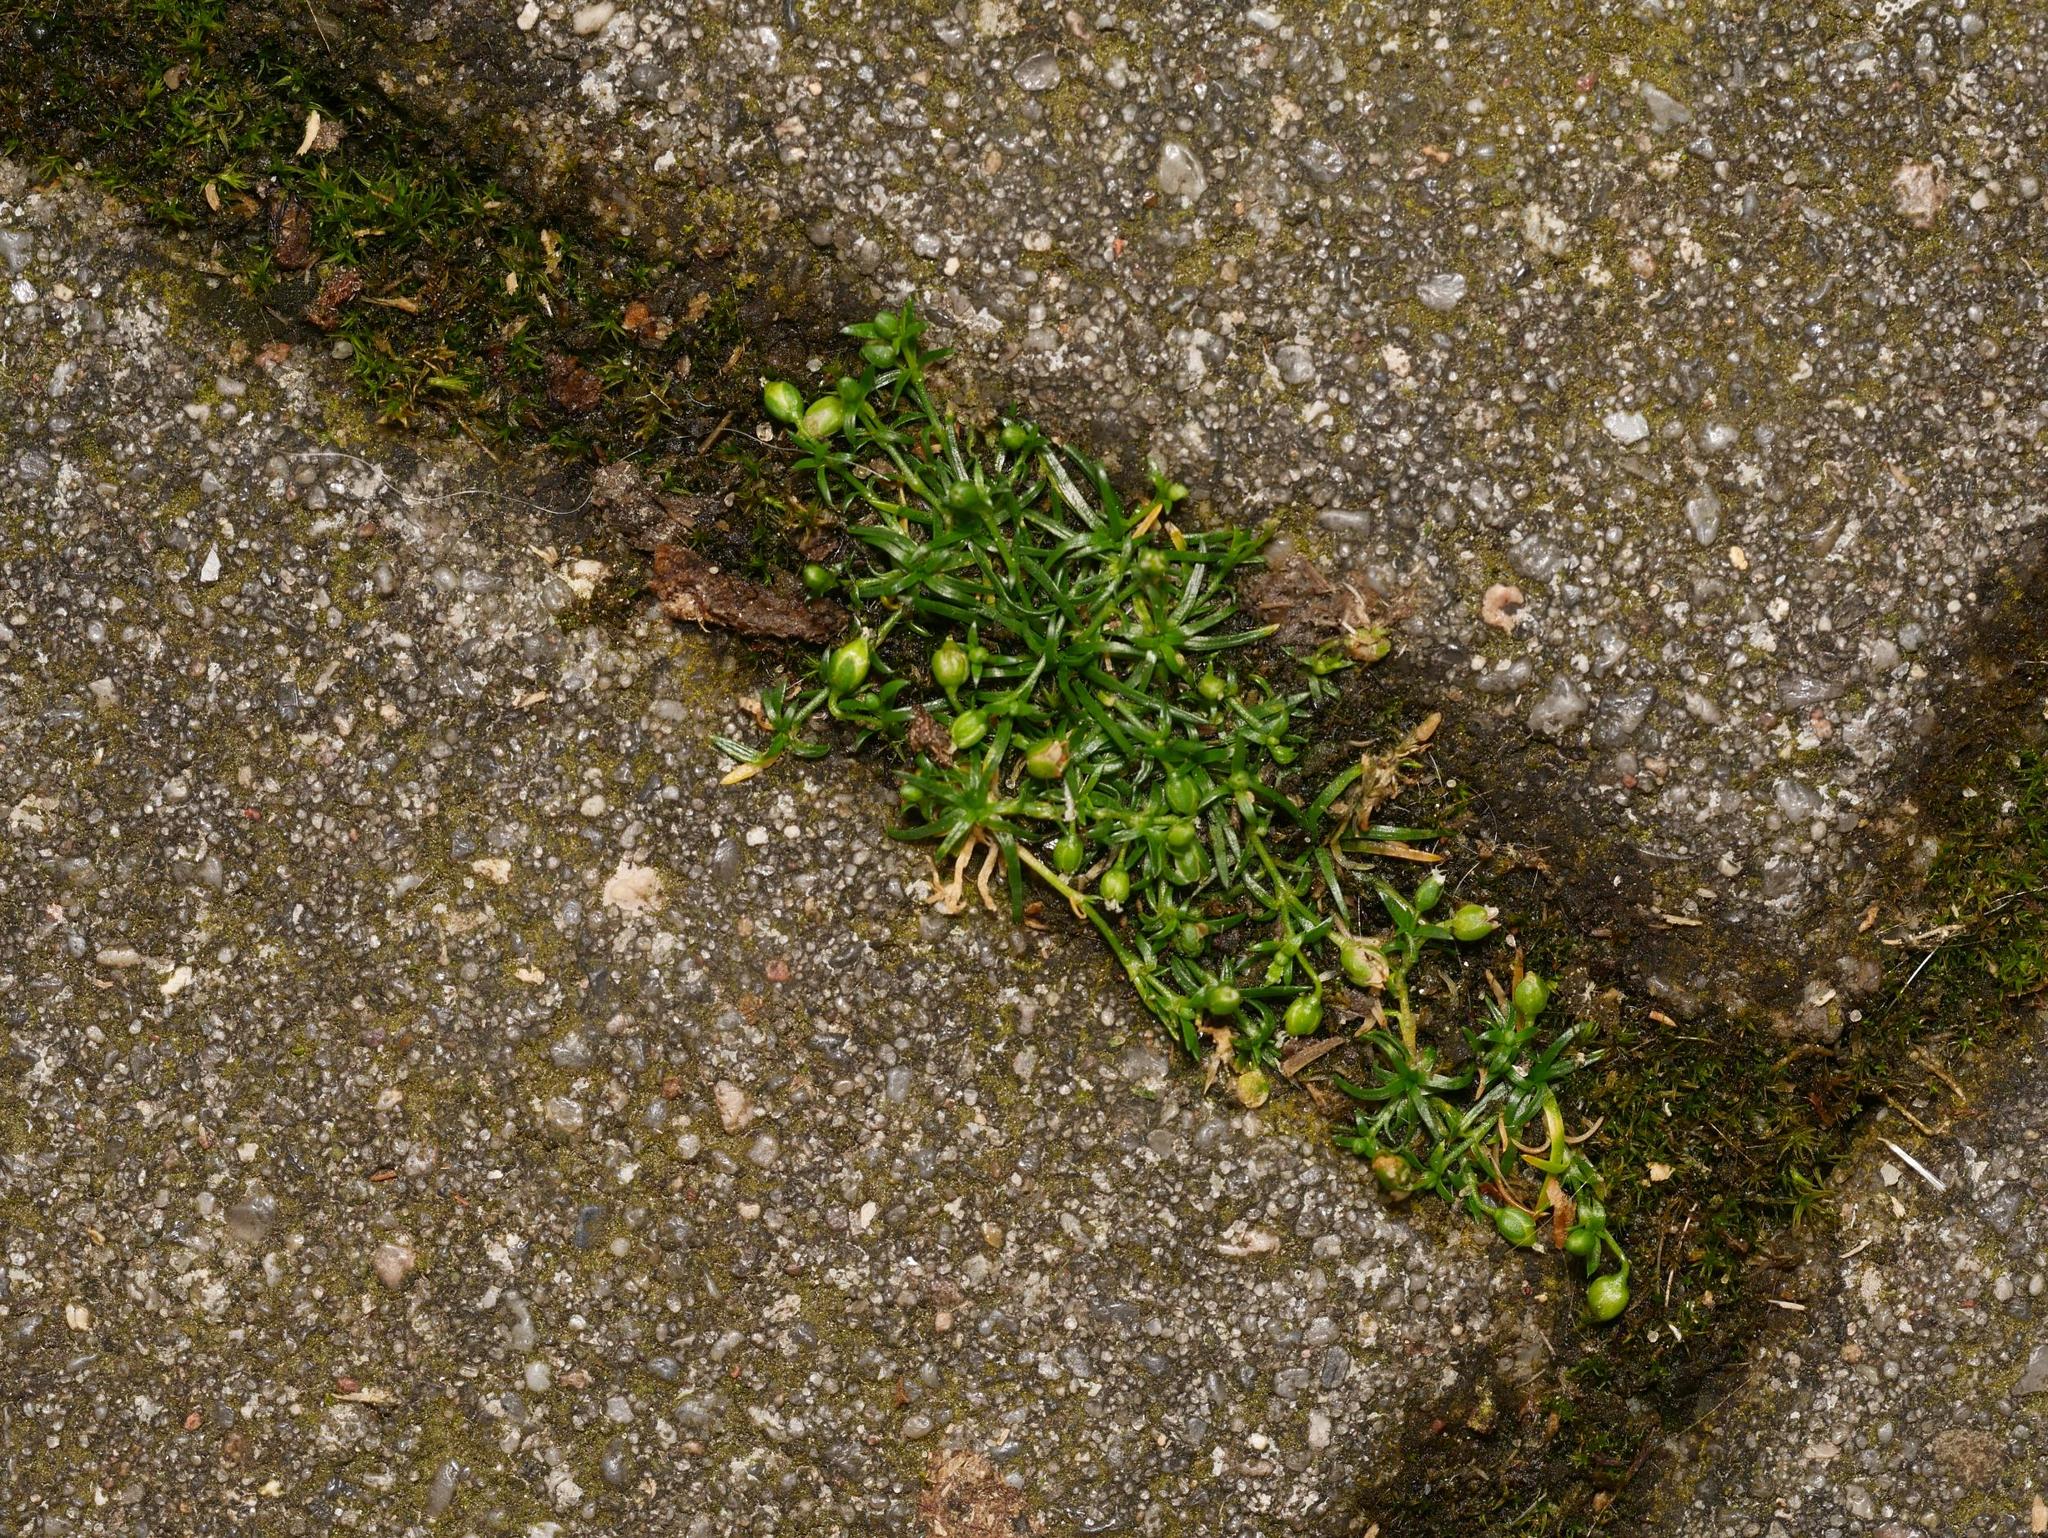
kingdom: Plantae
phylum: Tracheophyta
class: Magnoliopsida
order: Caryophyllales
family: Caryophyllaceae
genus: Sagina
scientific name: Sagina procumbens
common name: Procumbent pearlwort
